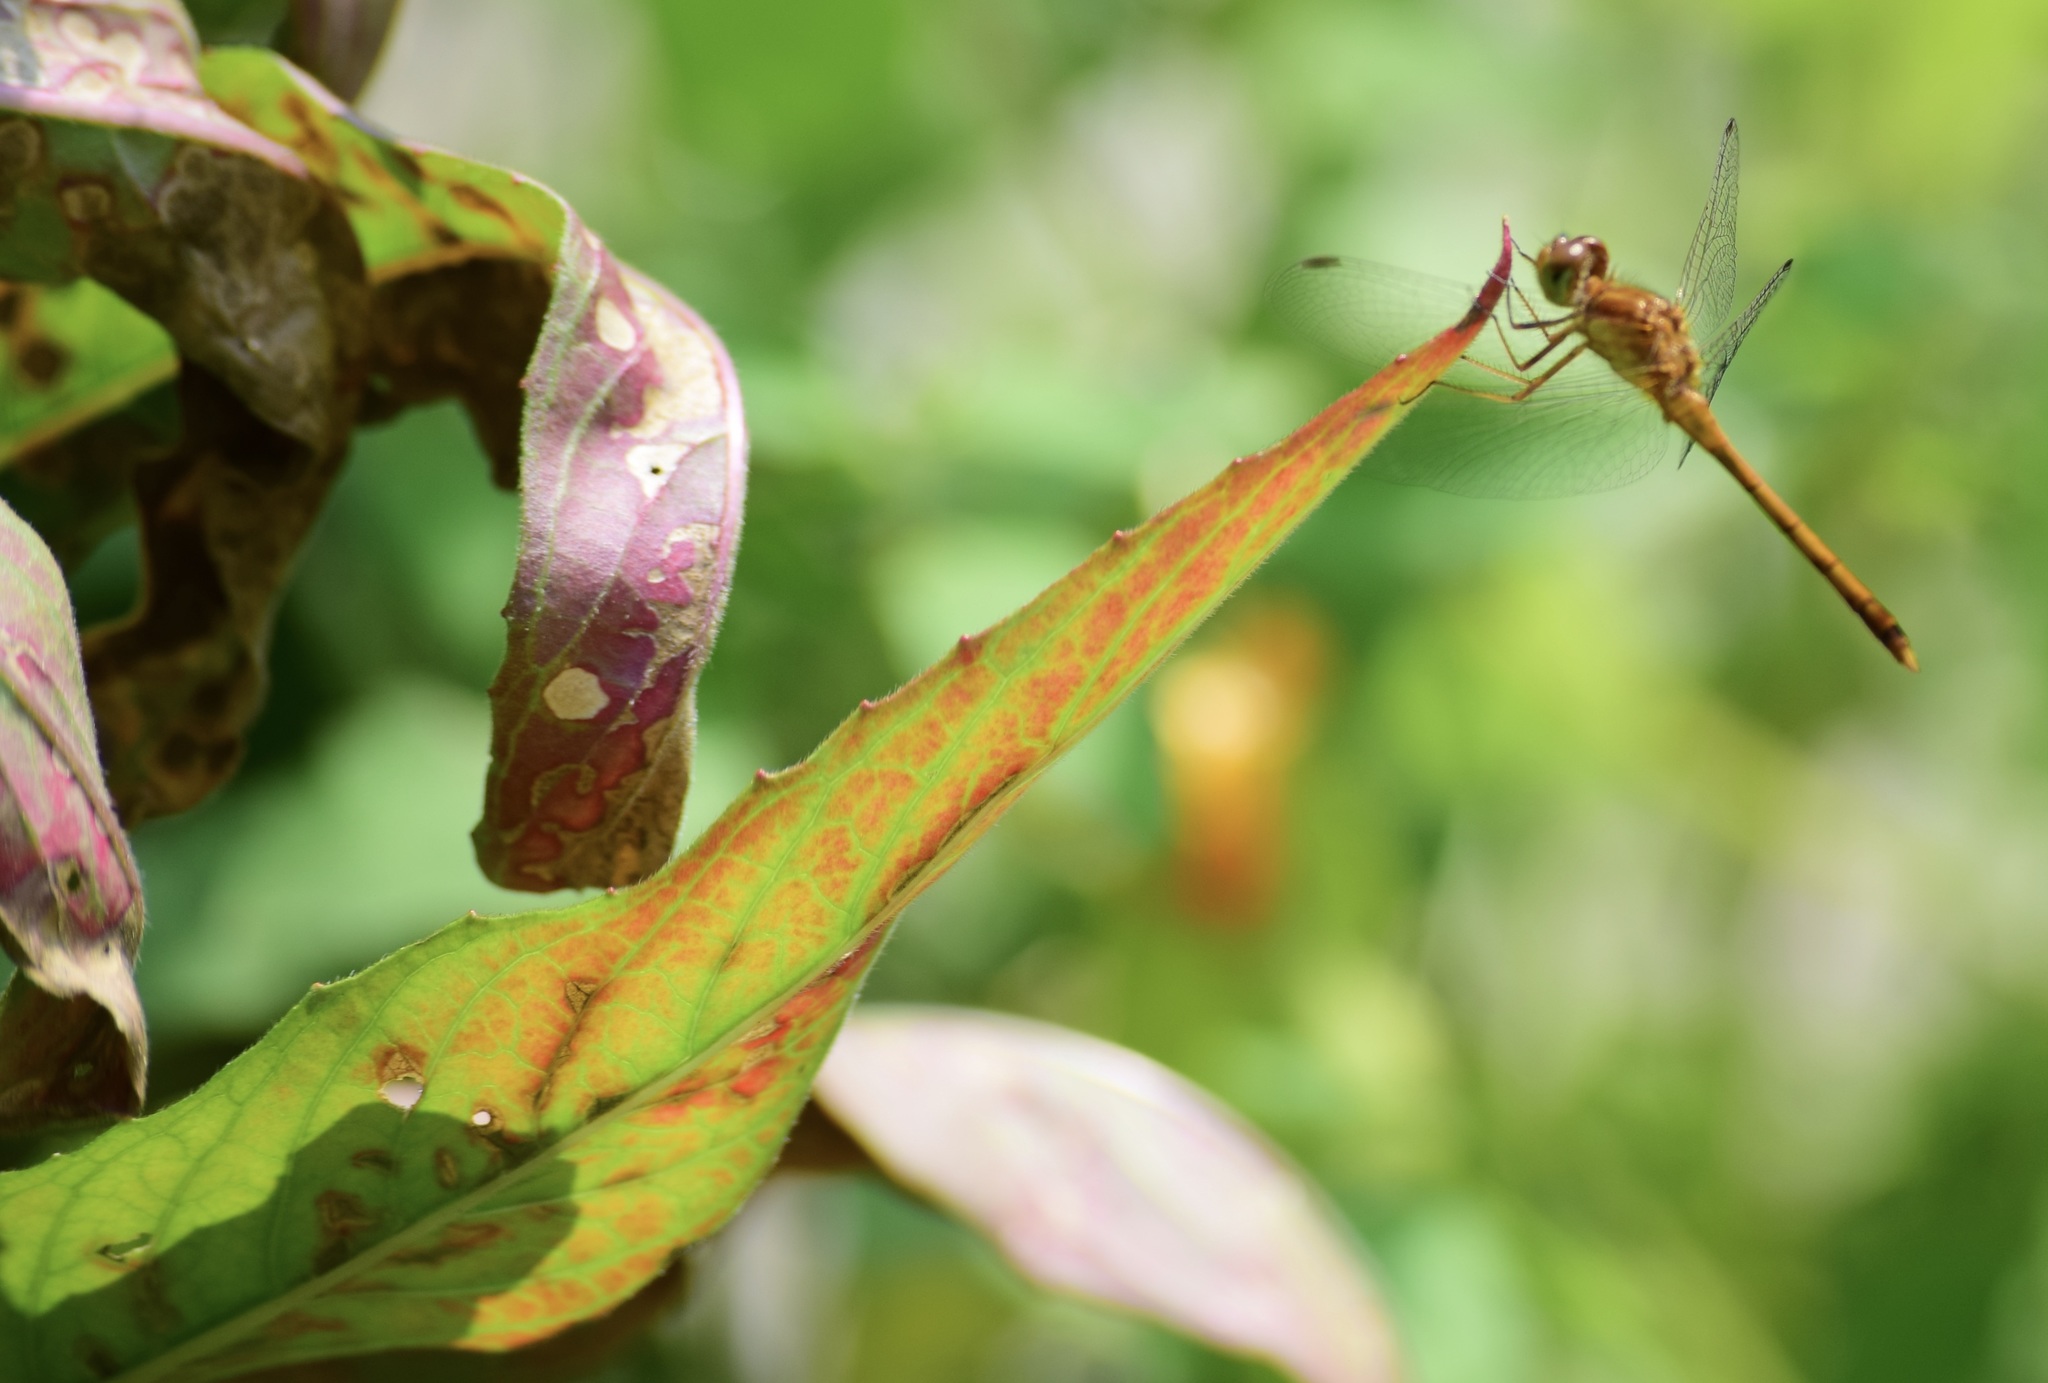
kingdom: Animalia
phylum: Arthropoda
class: Insecta
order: Odonata
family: Libellulidae
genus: Sympetrum
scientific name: Sympetrum vicinum
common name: Autumn meadowhawk
